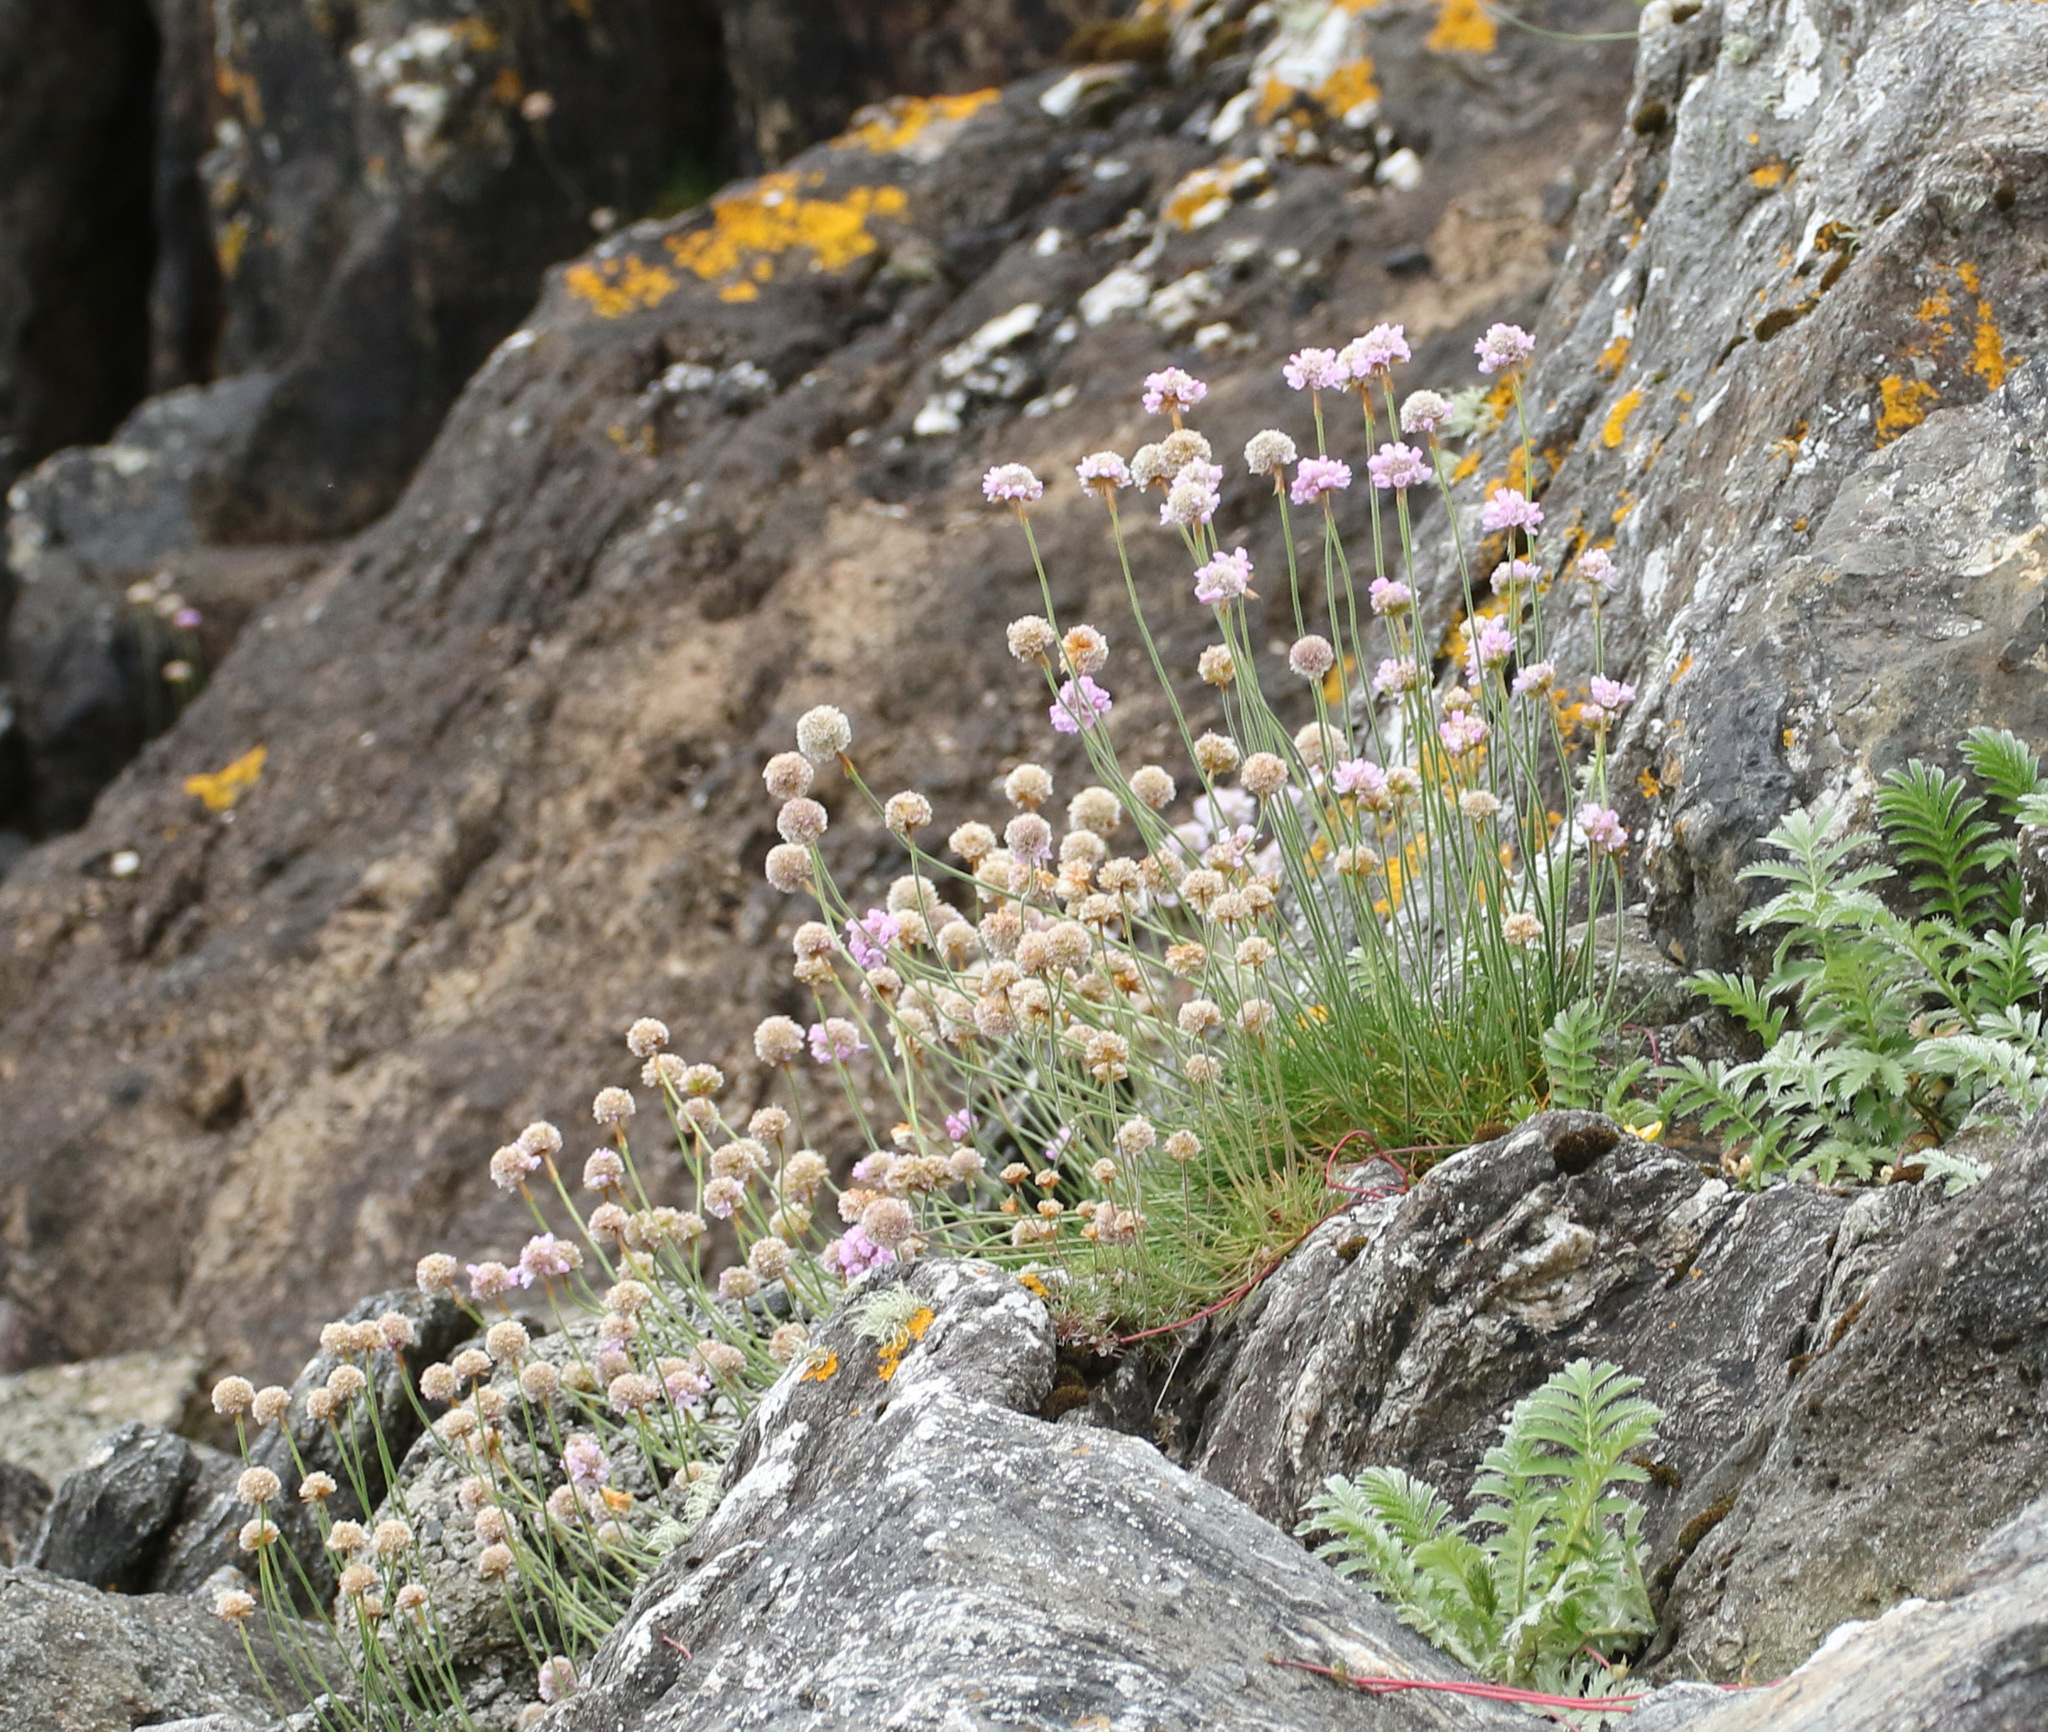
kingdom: Plantae
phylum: Tracheophyta
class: Magnoliopsida
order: Caryophyllales
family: Plumbaginaceae
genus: Armeria
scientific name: Armeria maritima
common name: Thrift
